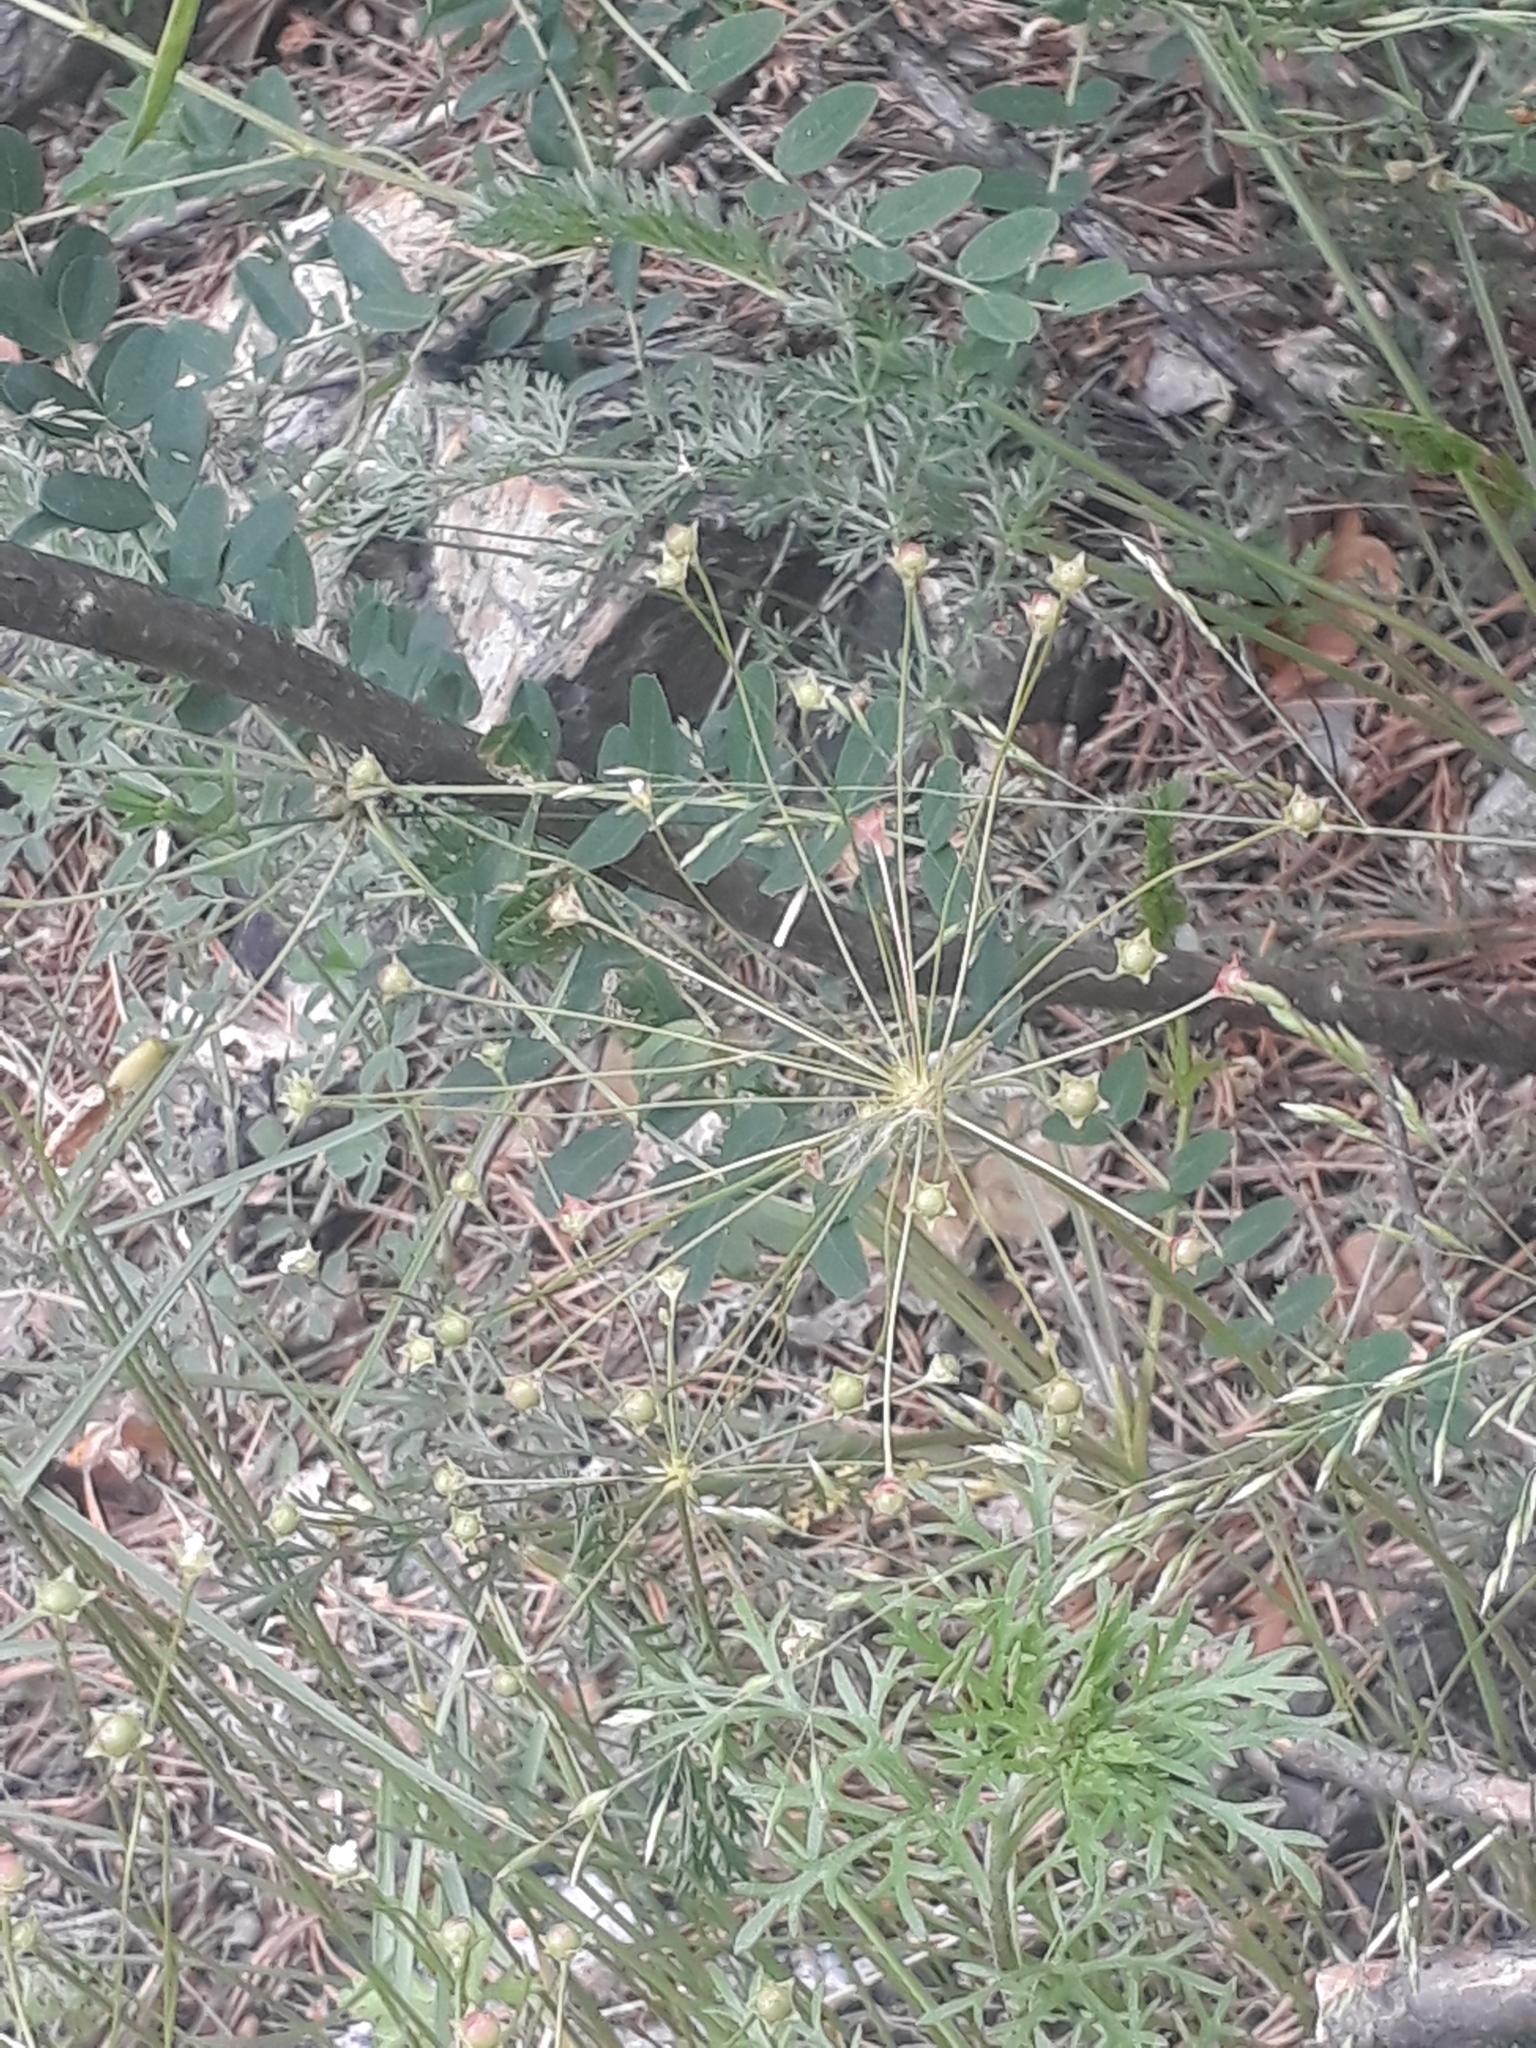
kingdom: Plantae
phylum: Tracheophyta
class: Magnoliopsida
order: Ericales
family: Primulaceae
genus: Androsace
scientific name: Androsace septentrionalis
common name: Hairy northern fairy-candelabra
